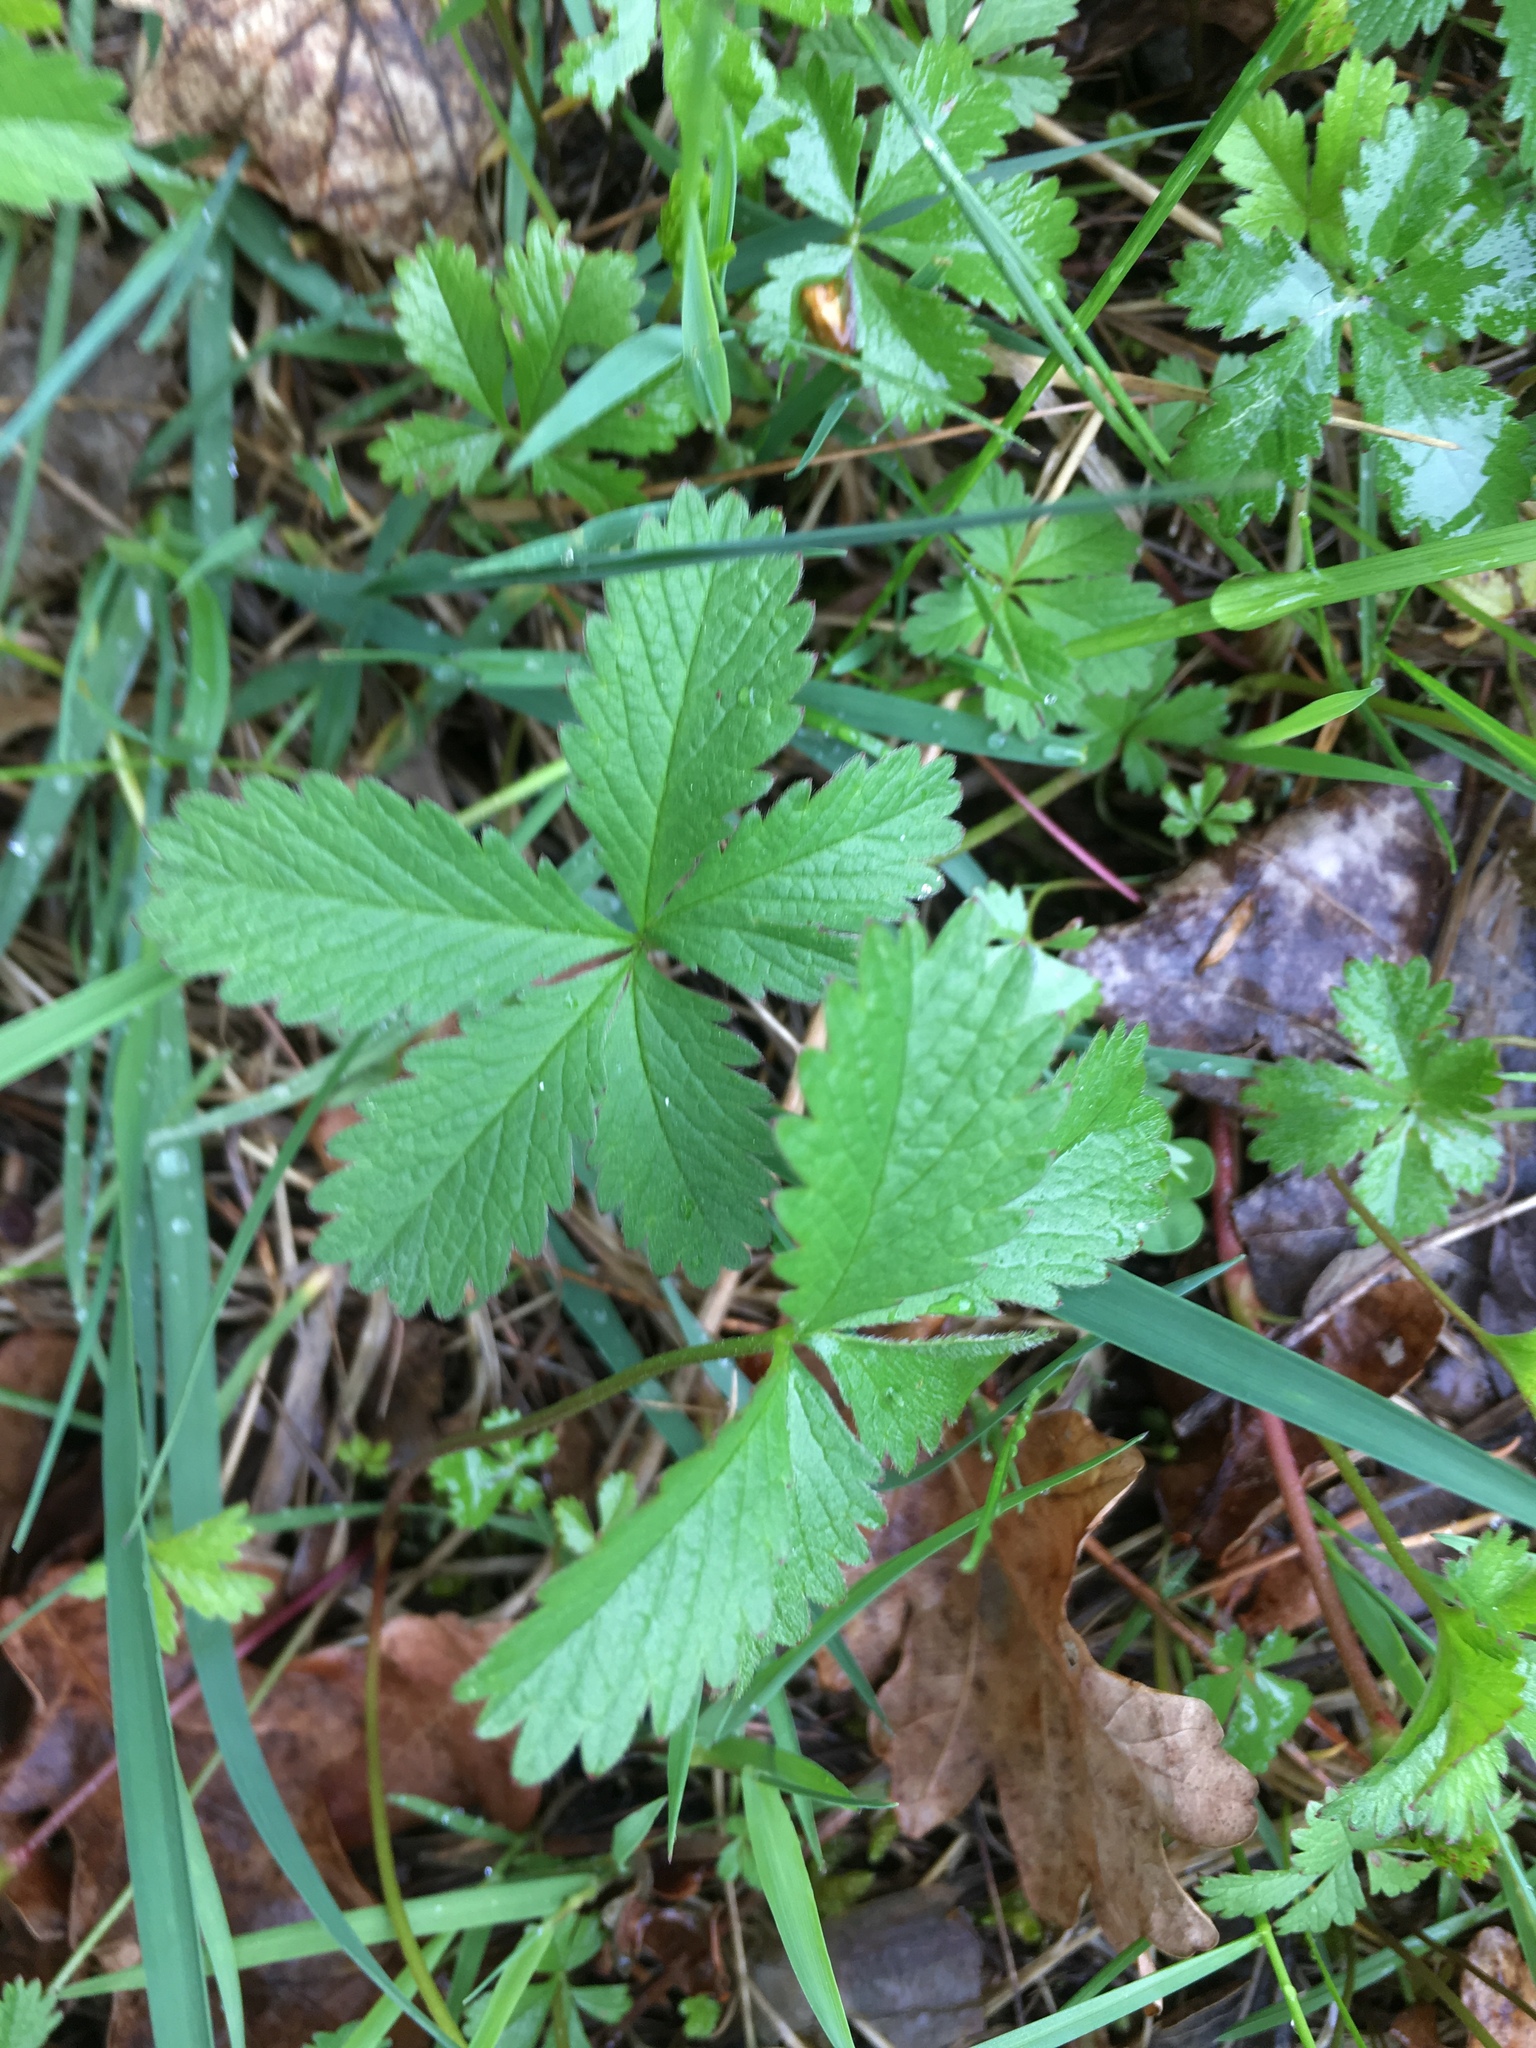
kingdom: Plantae
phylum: Tracheophyta
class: Magnoliopsida
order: Rosales
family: Rosaceae
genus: Potentilla
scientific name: Potentilla reptans
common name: Creeping cinquefoil
